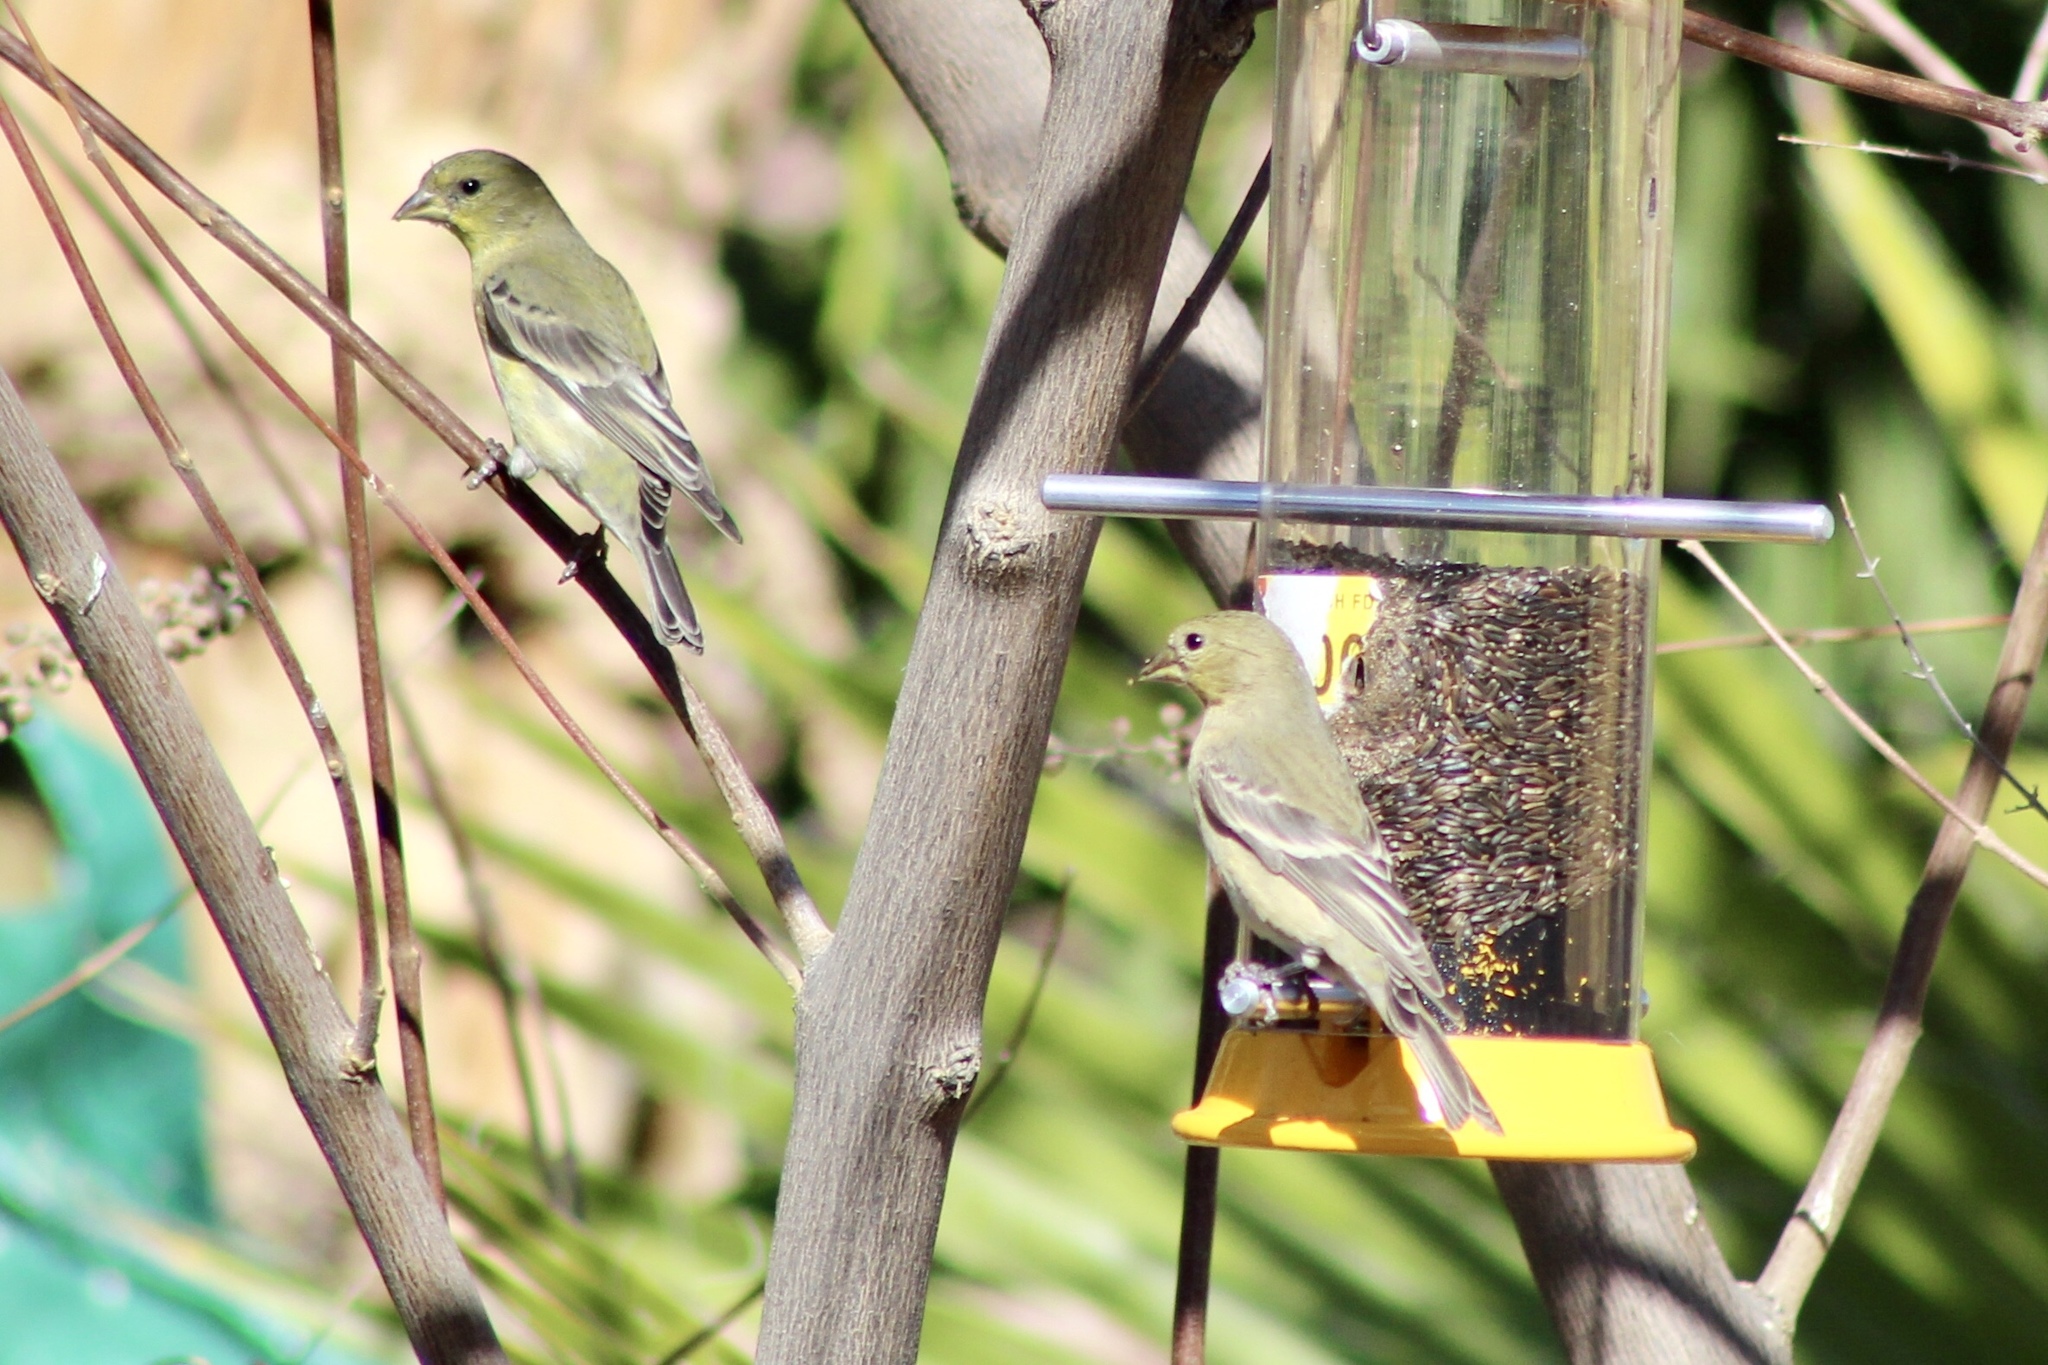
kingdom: Animalia
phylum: Chordata
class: Aves
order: Passeriformes
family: Fringillidae
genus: Spinus
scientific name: Spinus psaltria
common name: Lesser goldfinch
